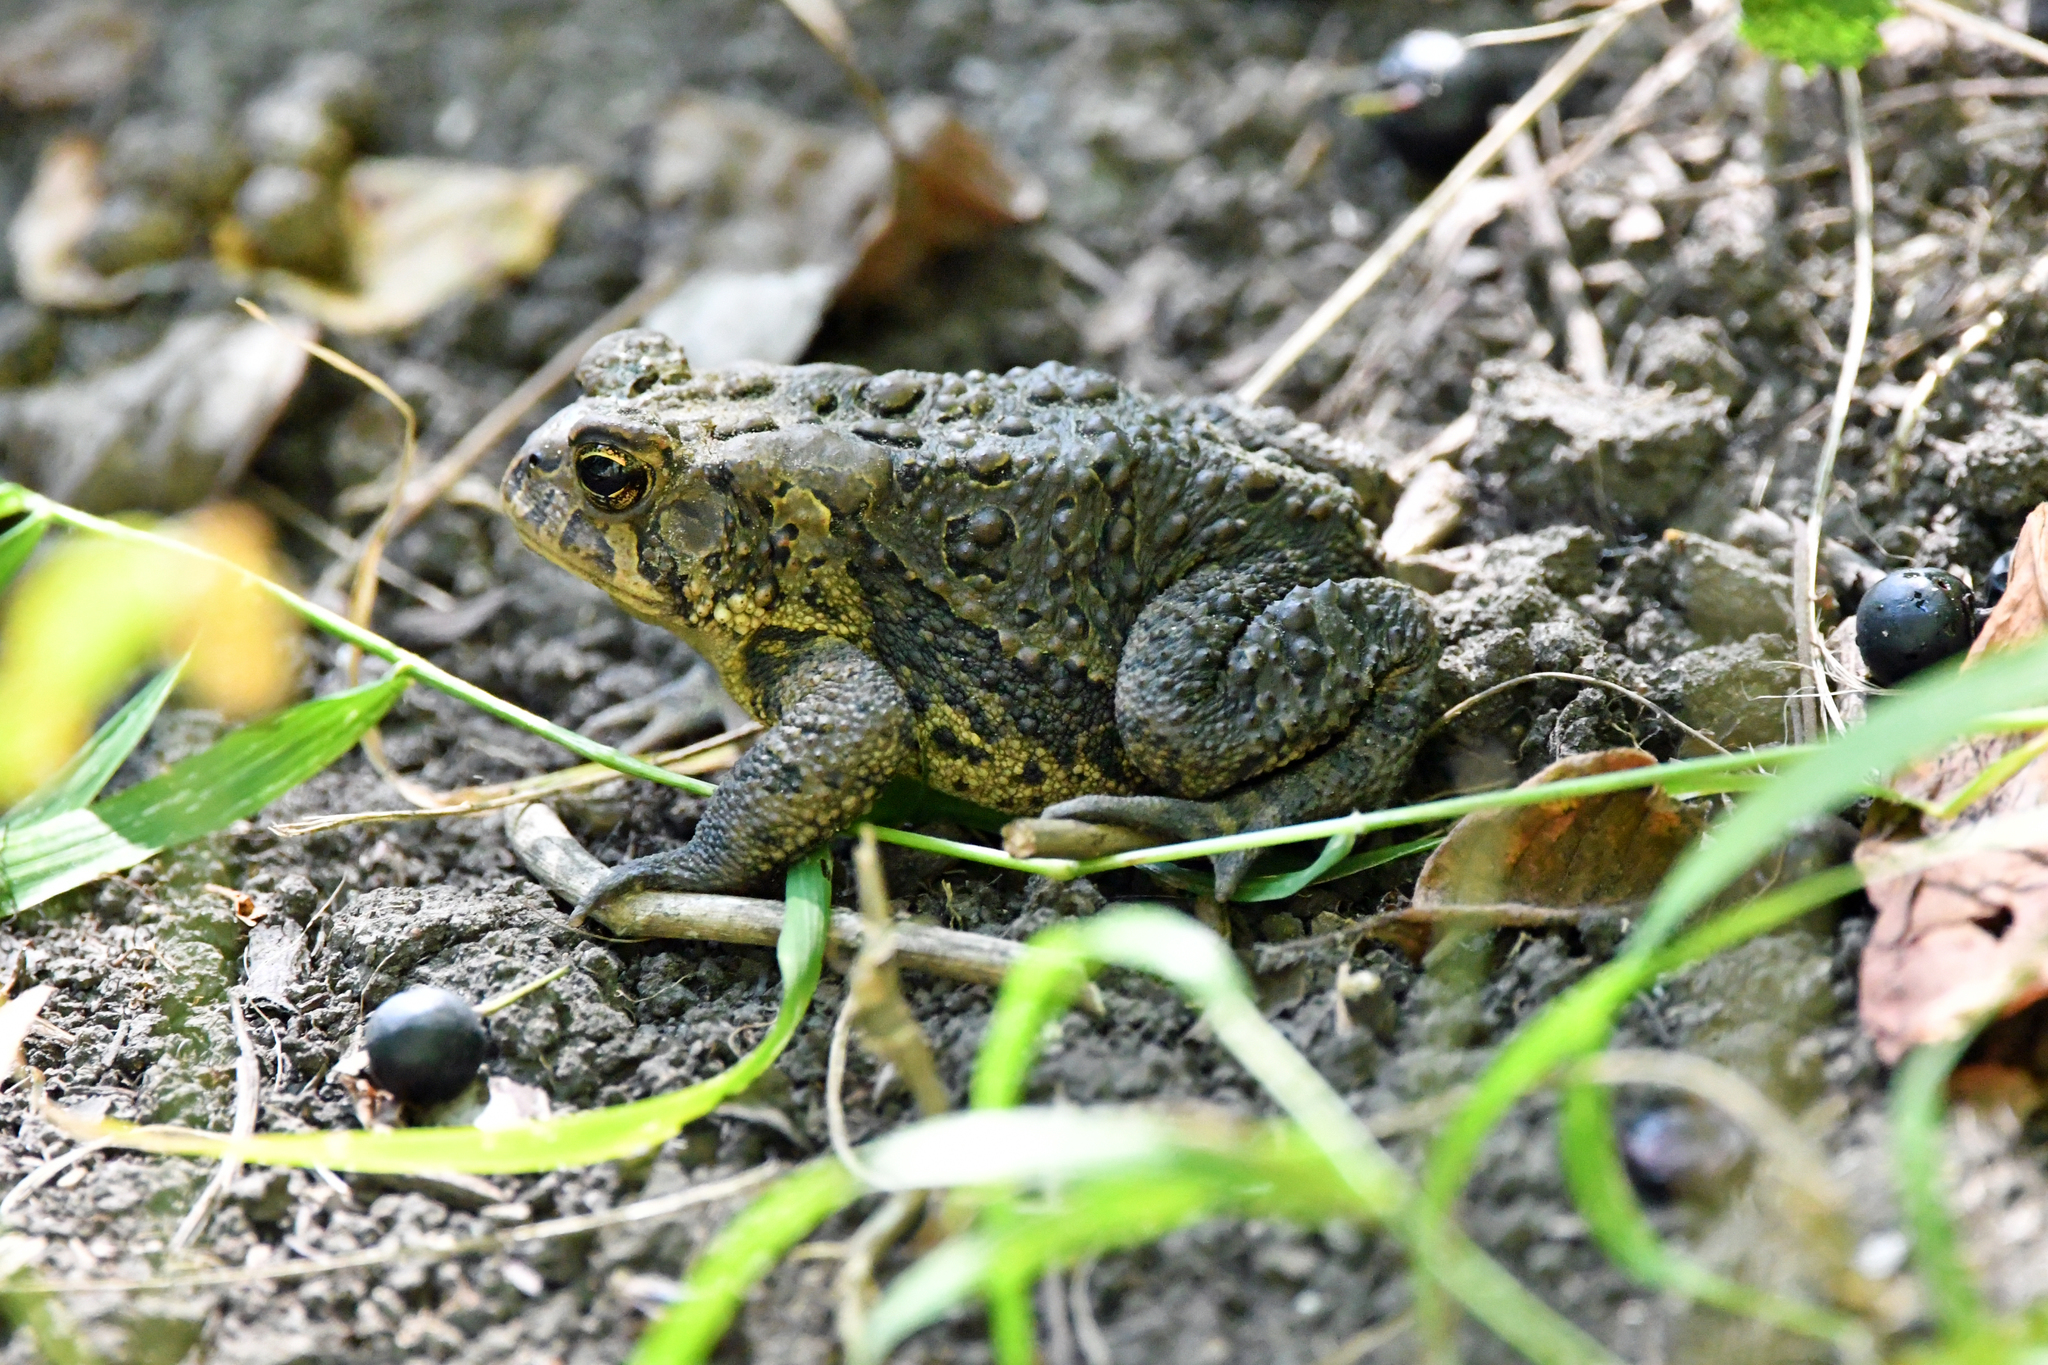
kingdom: Animalia
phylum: Chordata
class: Amphibia
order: Anura
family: Bufonidae
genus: Anaxyrus
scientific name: Anaxyrus americanus
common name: American toad
